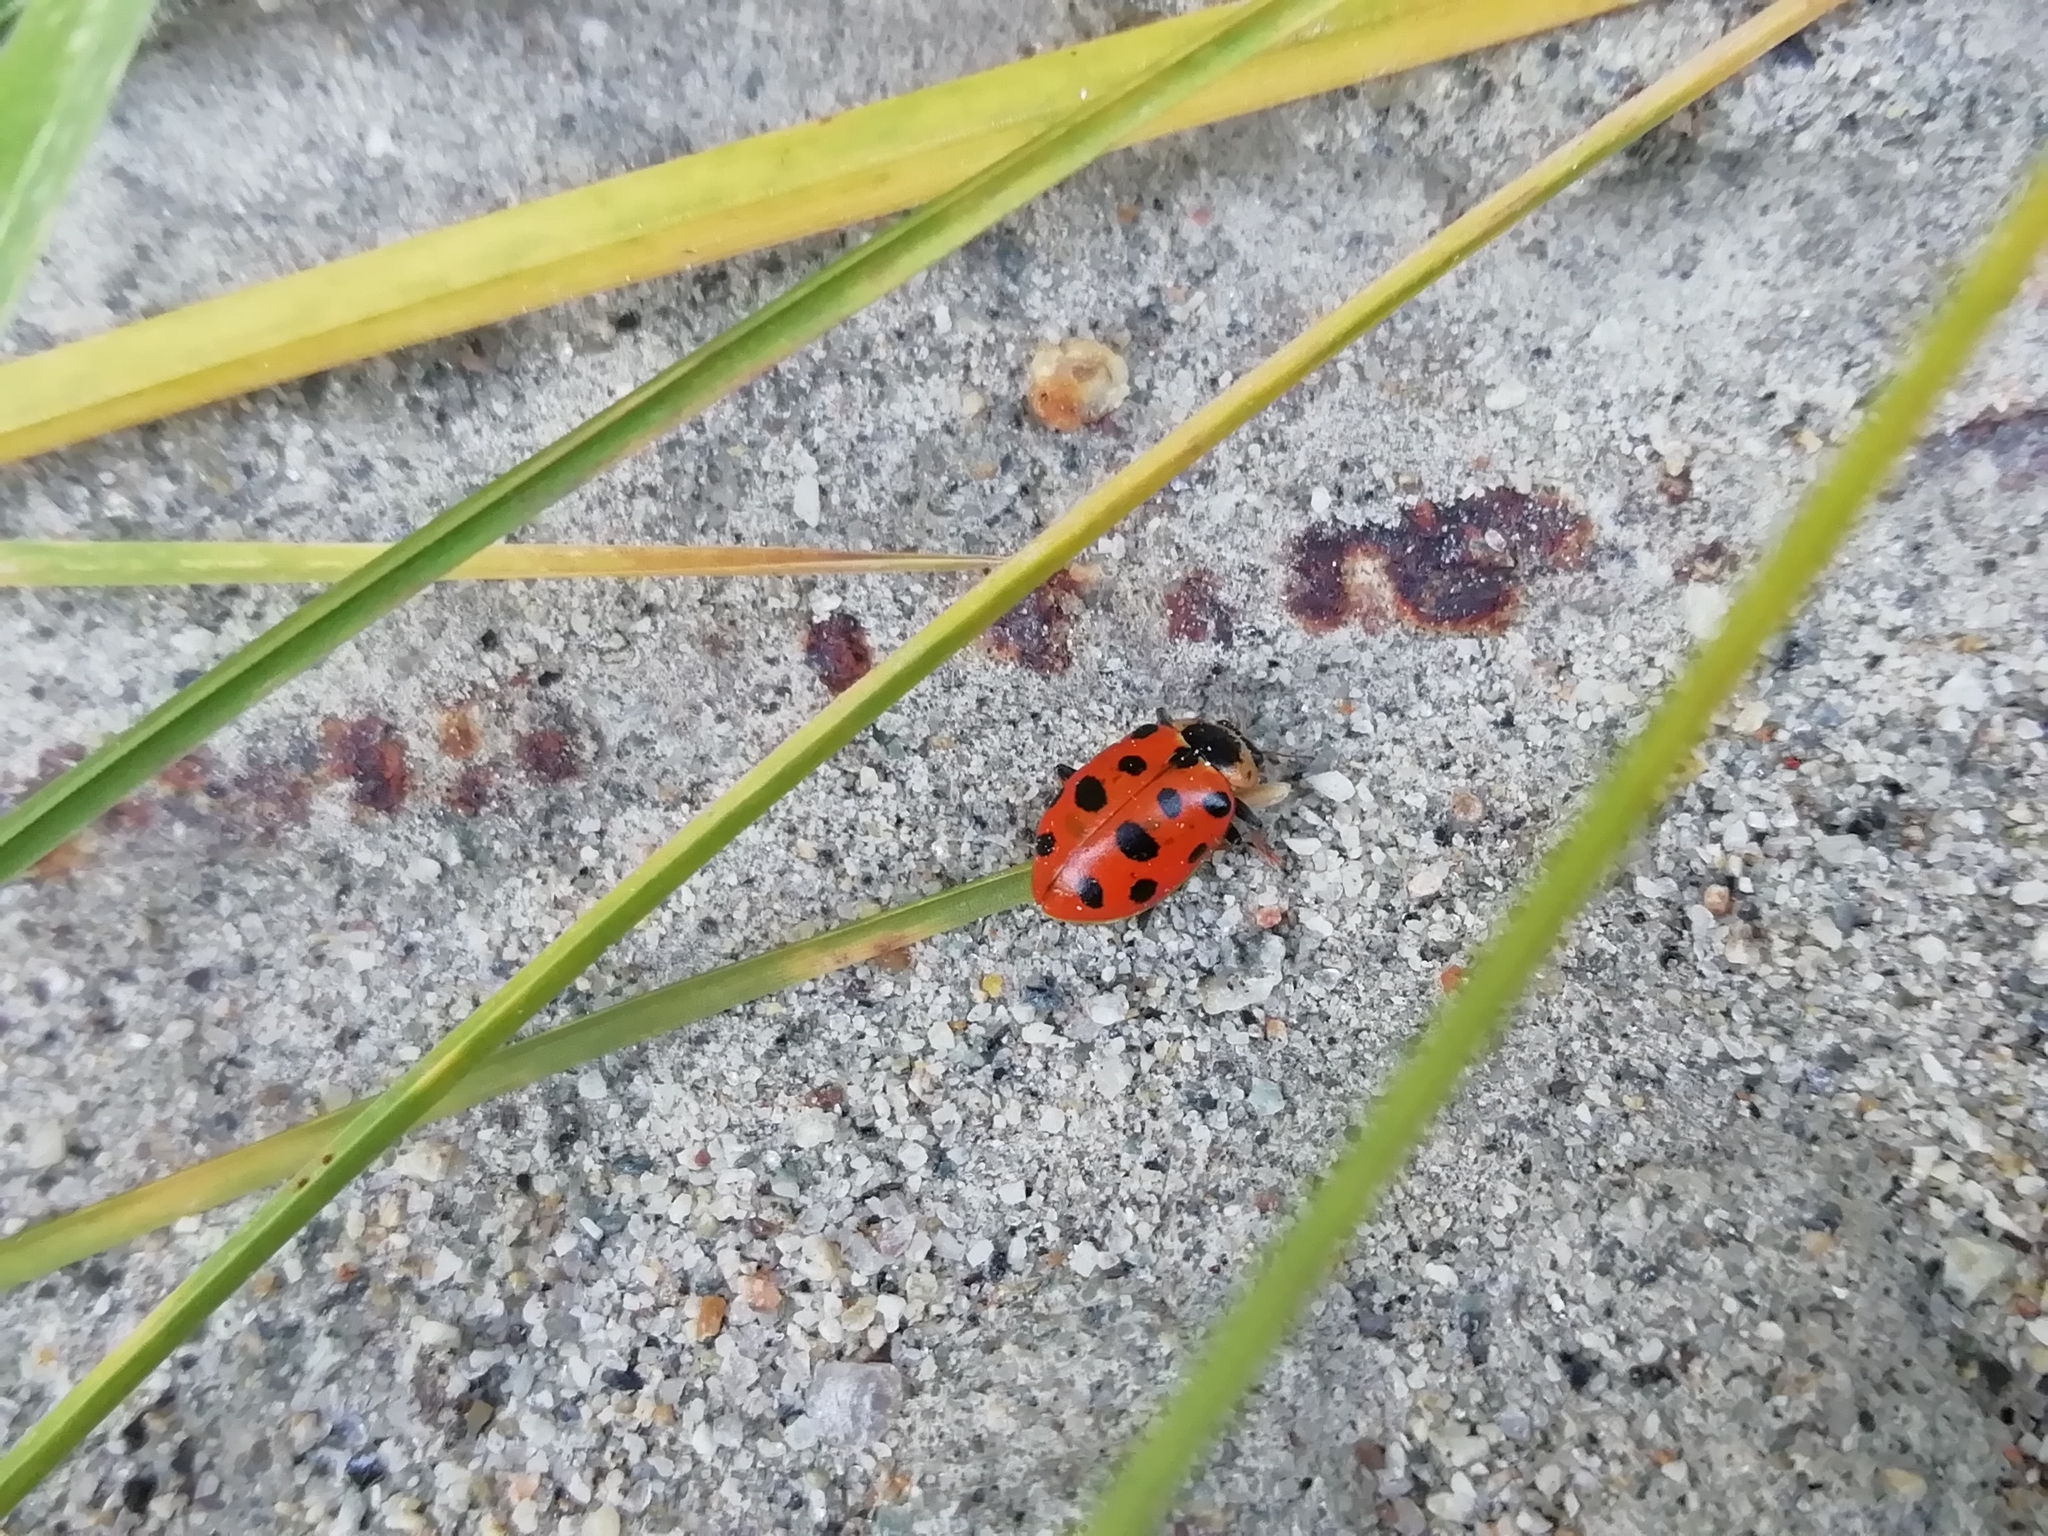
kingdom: Animalia
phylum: Arthropoda
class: Insecta
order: Coleoptera
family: Coccinellidae
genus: Hippodamia
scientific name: Hippodamia tredecimpunctata
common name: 13-spot ladybird
